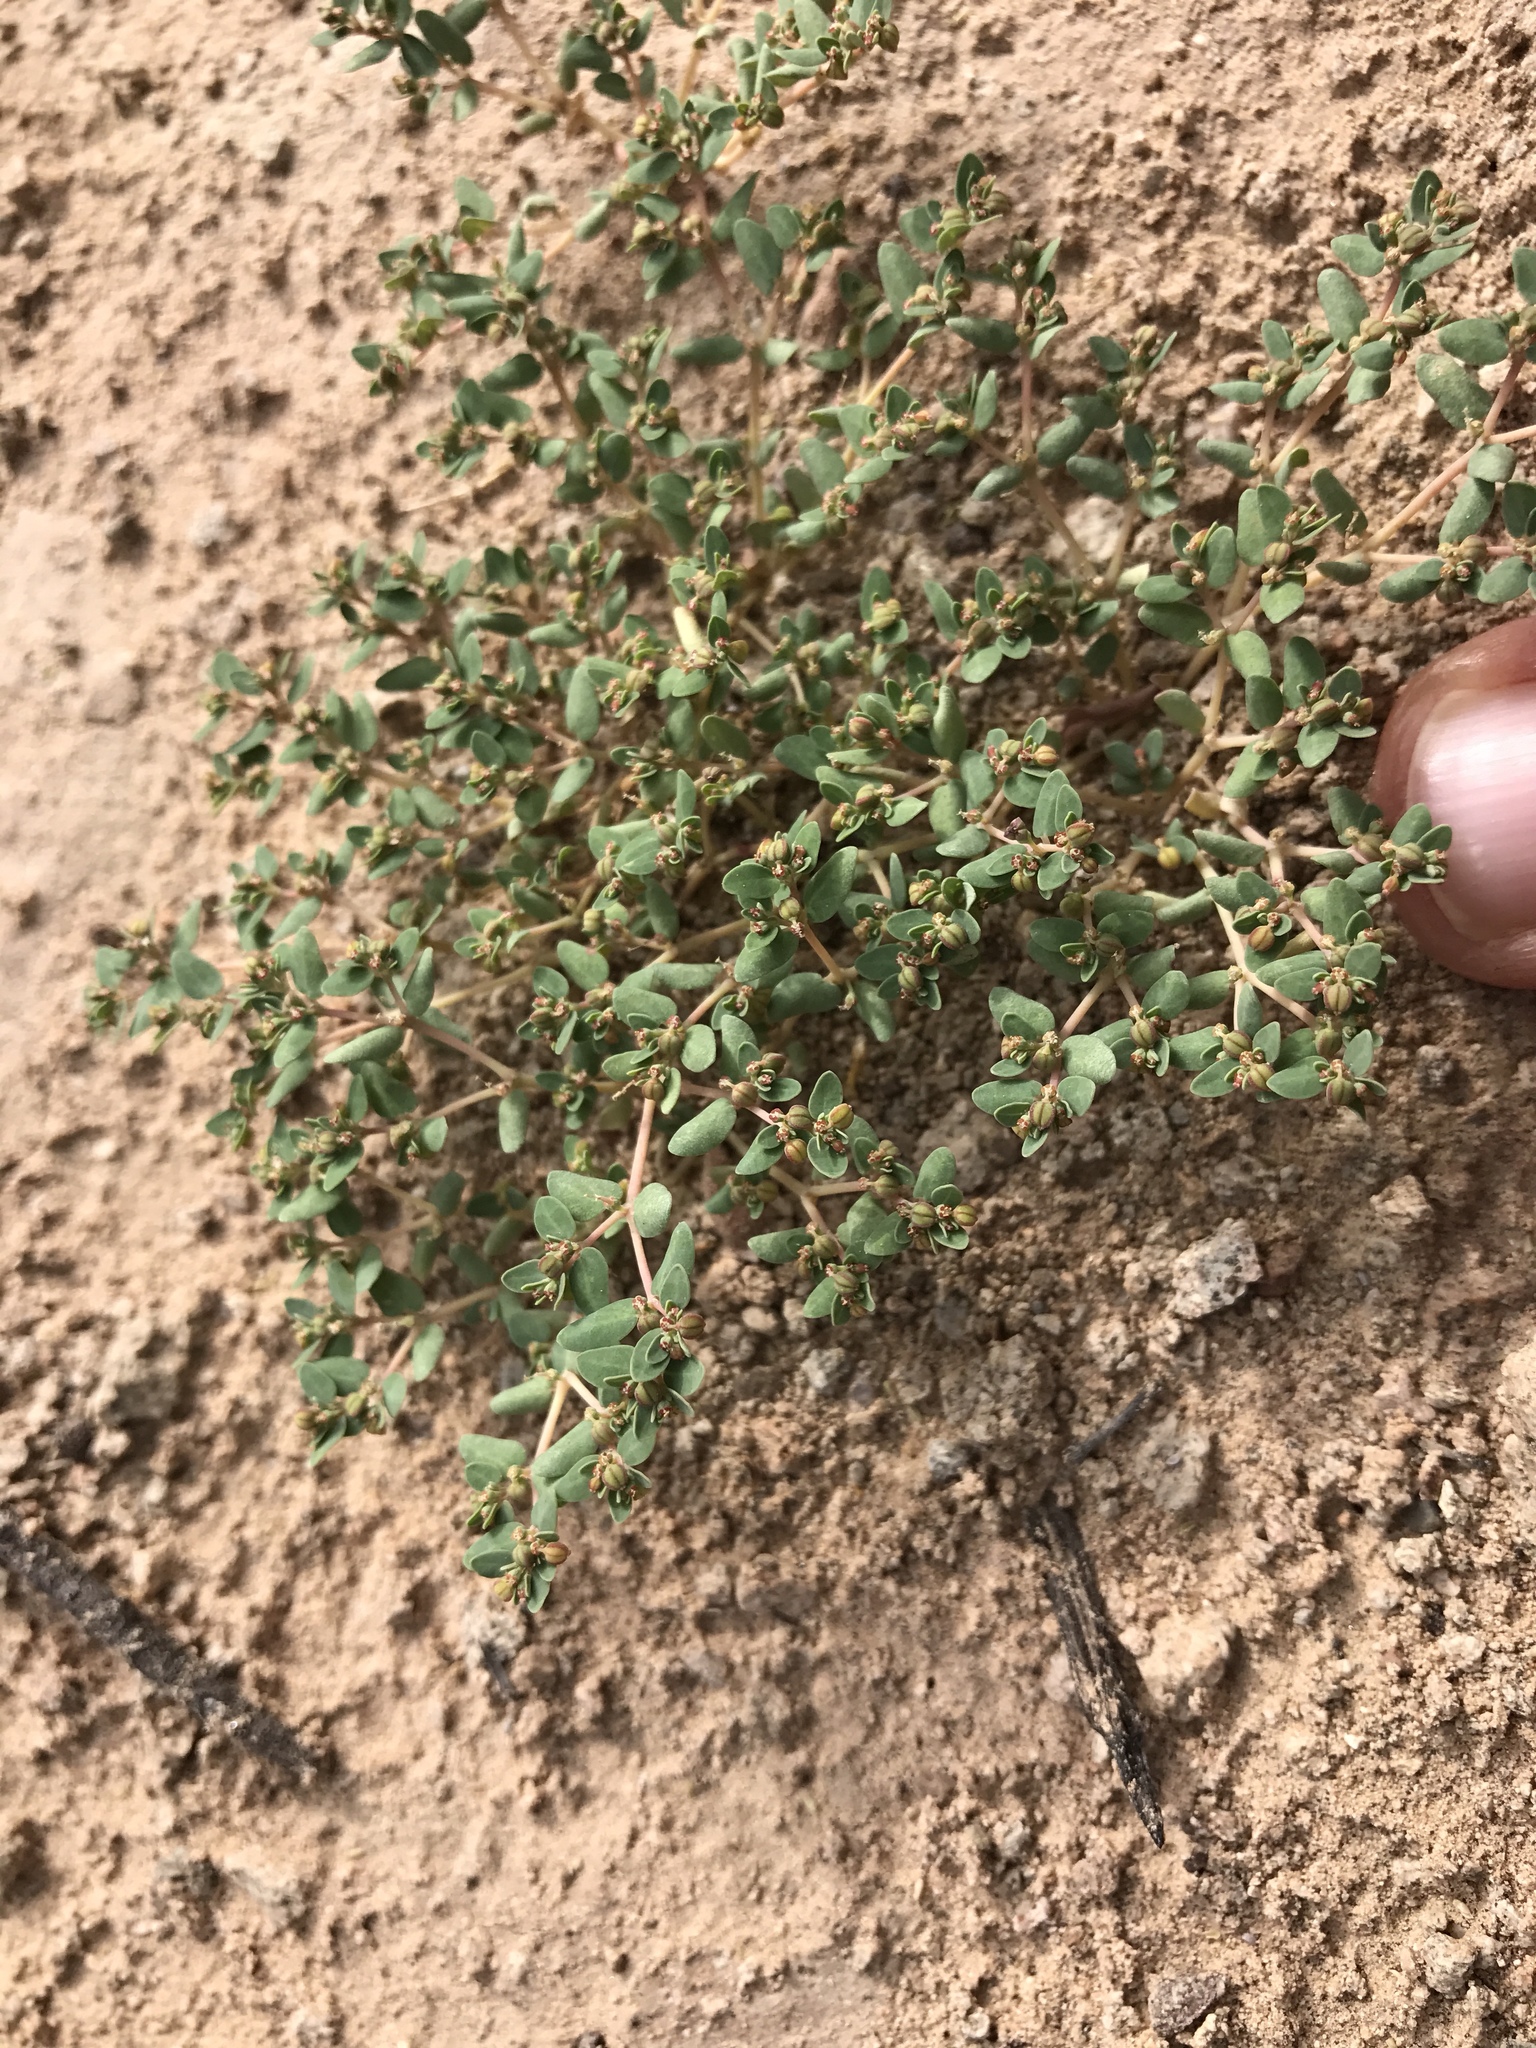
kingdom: Plantae
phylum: Tracheophyta
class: Magnoliopsida
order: Malpighiales
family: Euphorbiaceae
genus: Euphorbia
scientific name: Euphorbia micromera
